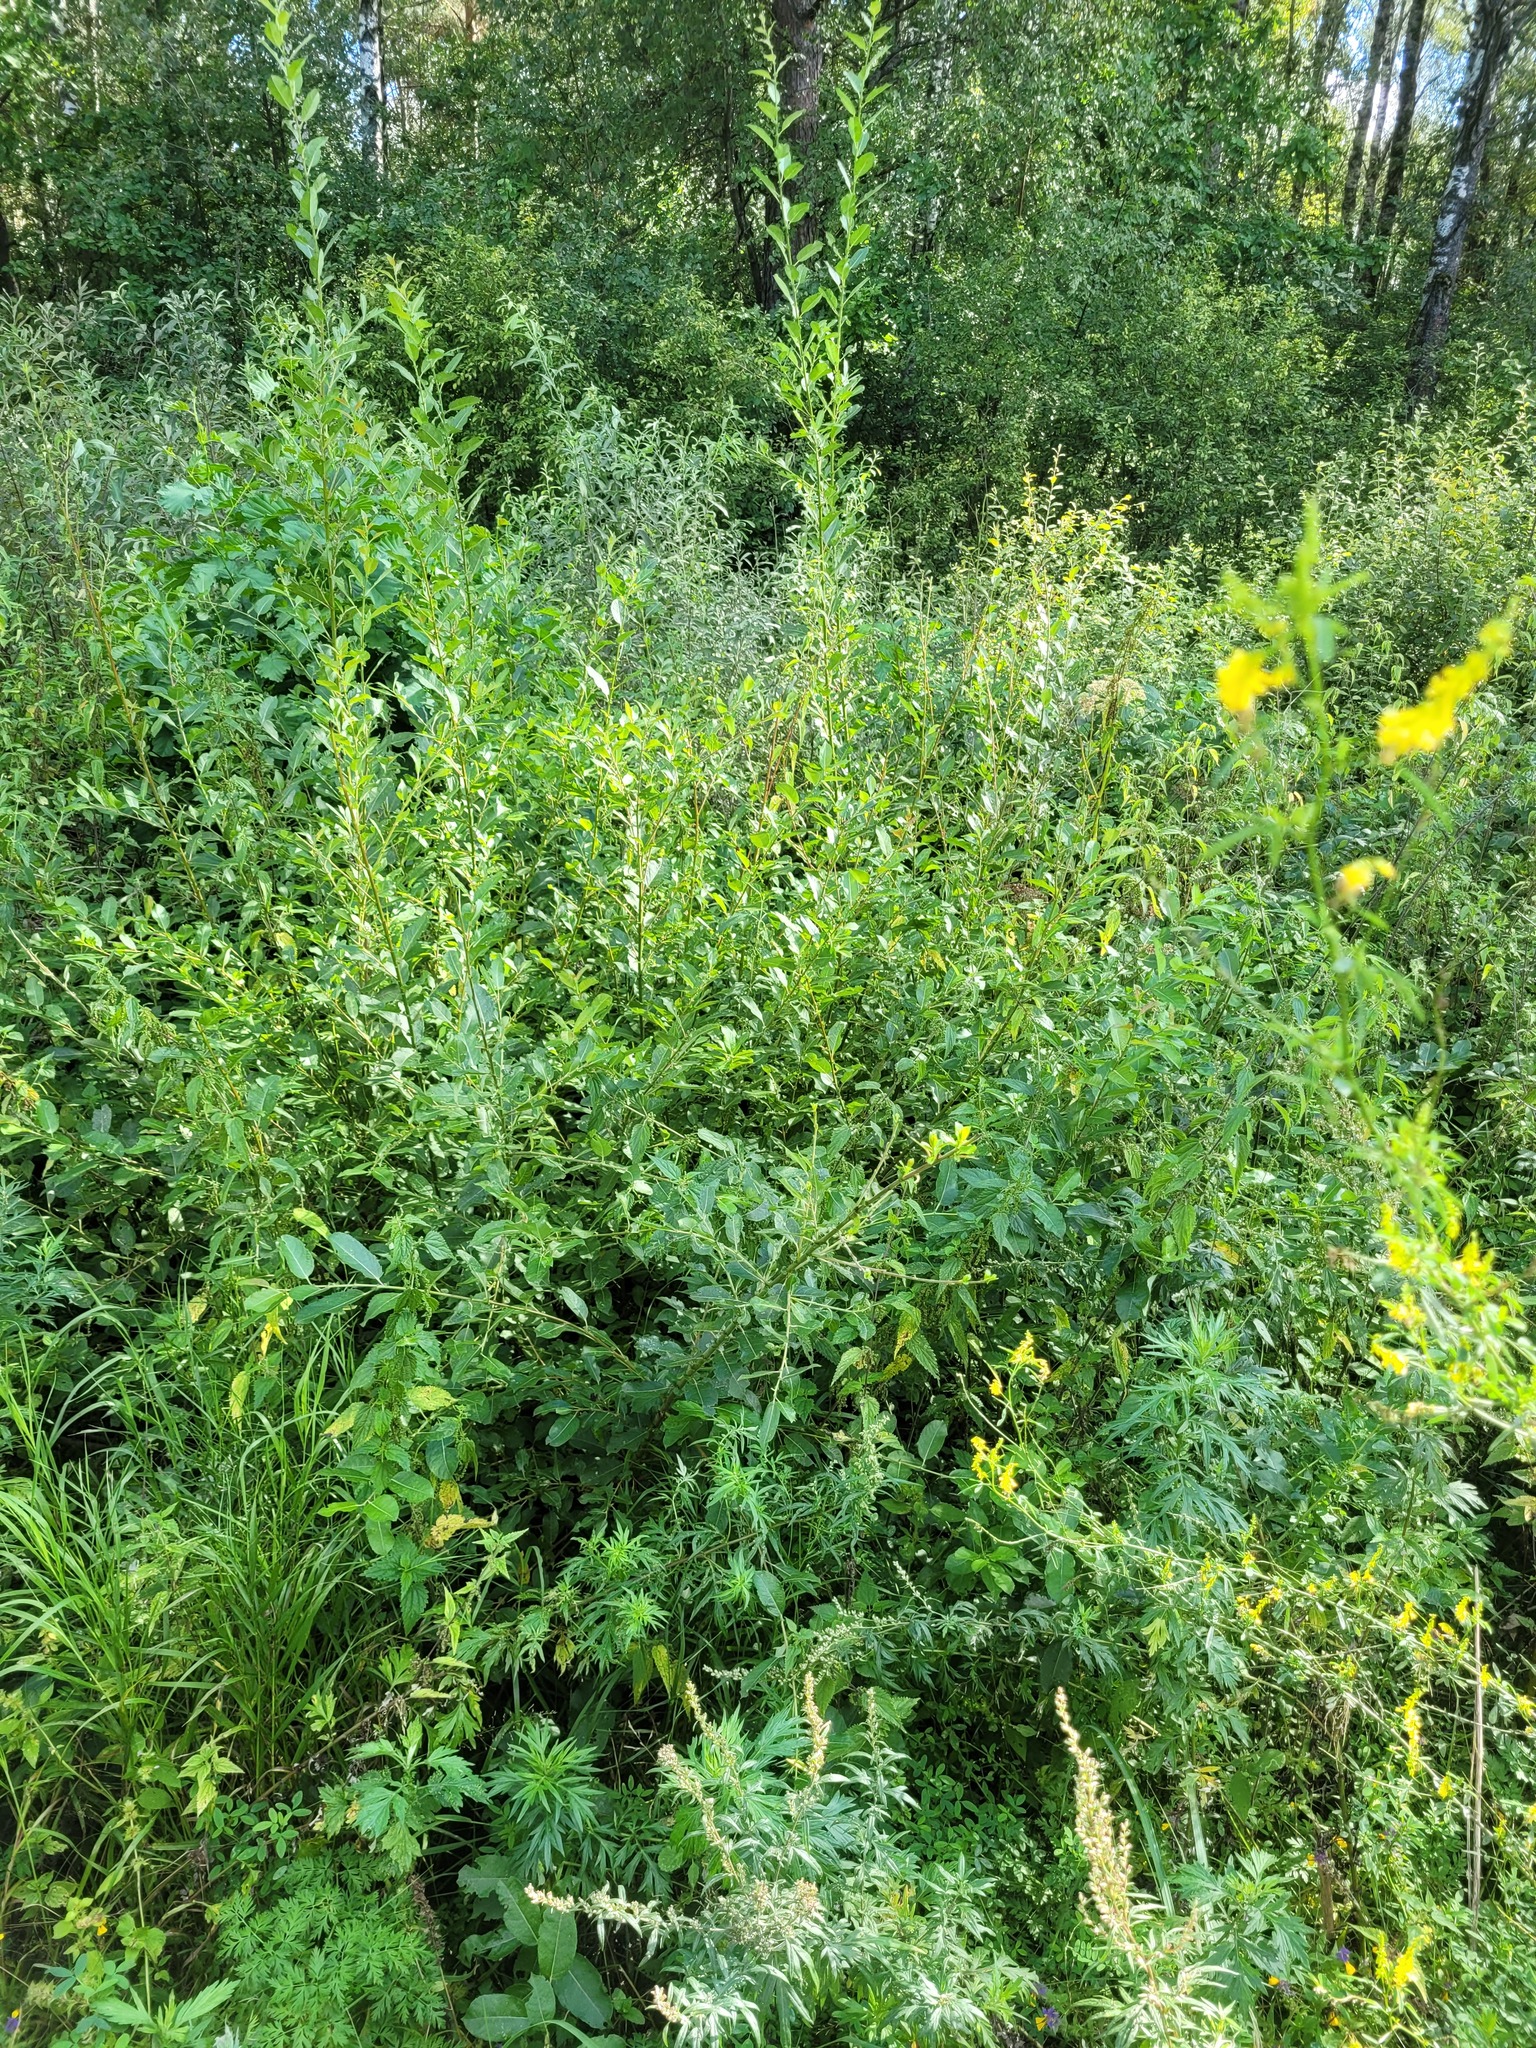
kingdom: Plantae
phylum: Tracheophyta
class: Magnoliopsida
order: Malpighiales
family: Salicaceae
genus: Salix
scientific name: Salix triandra
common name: Almond willow
